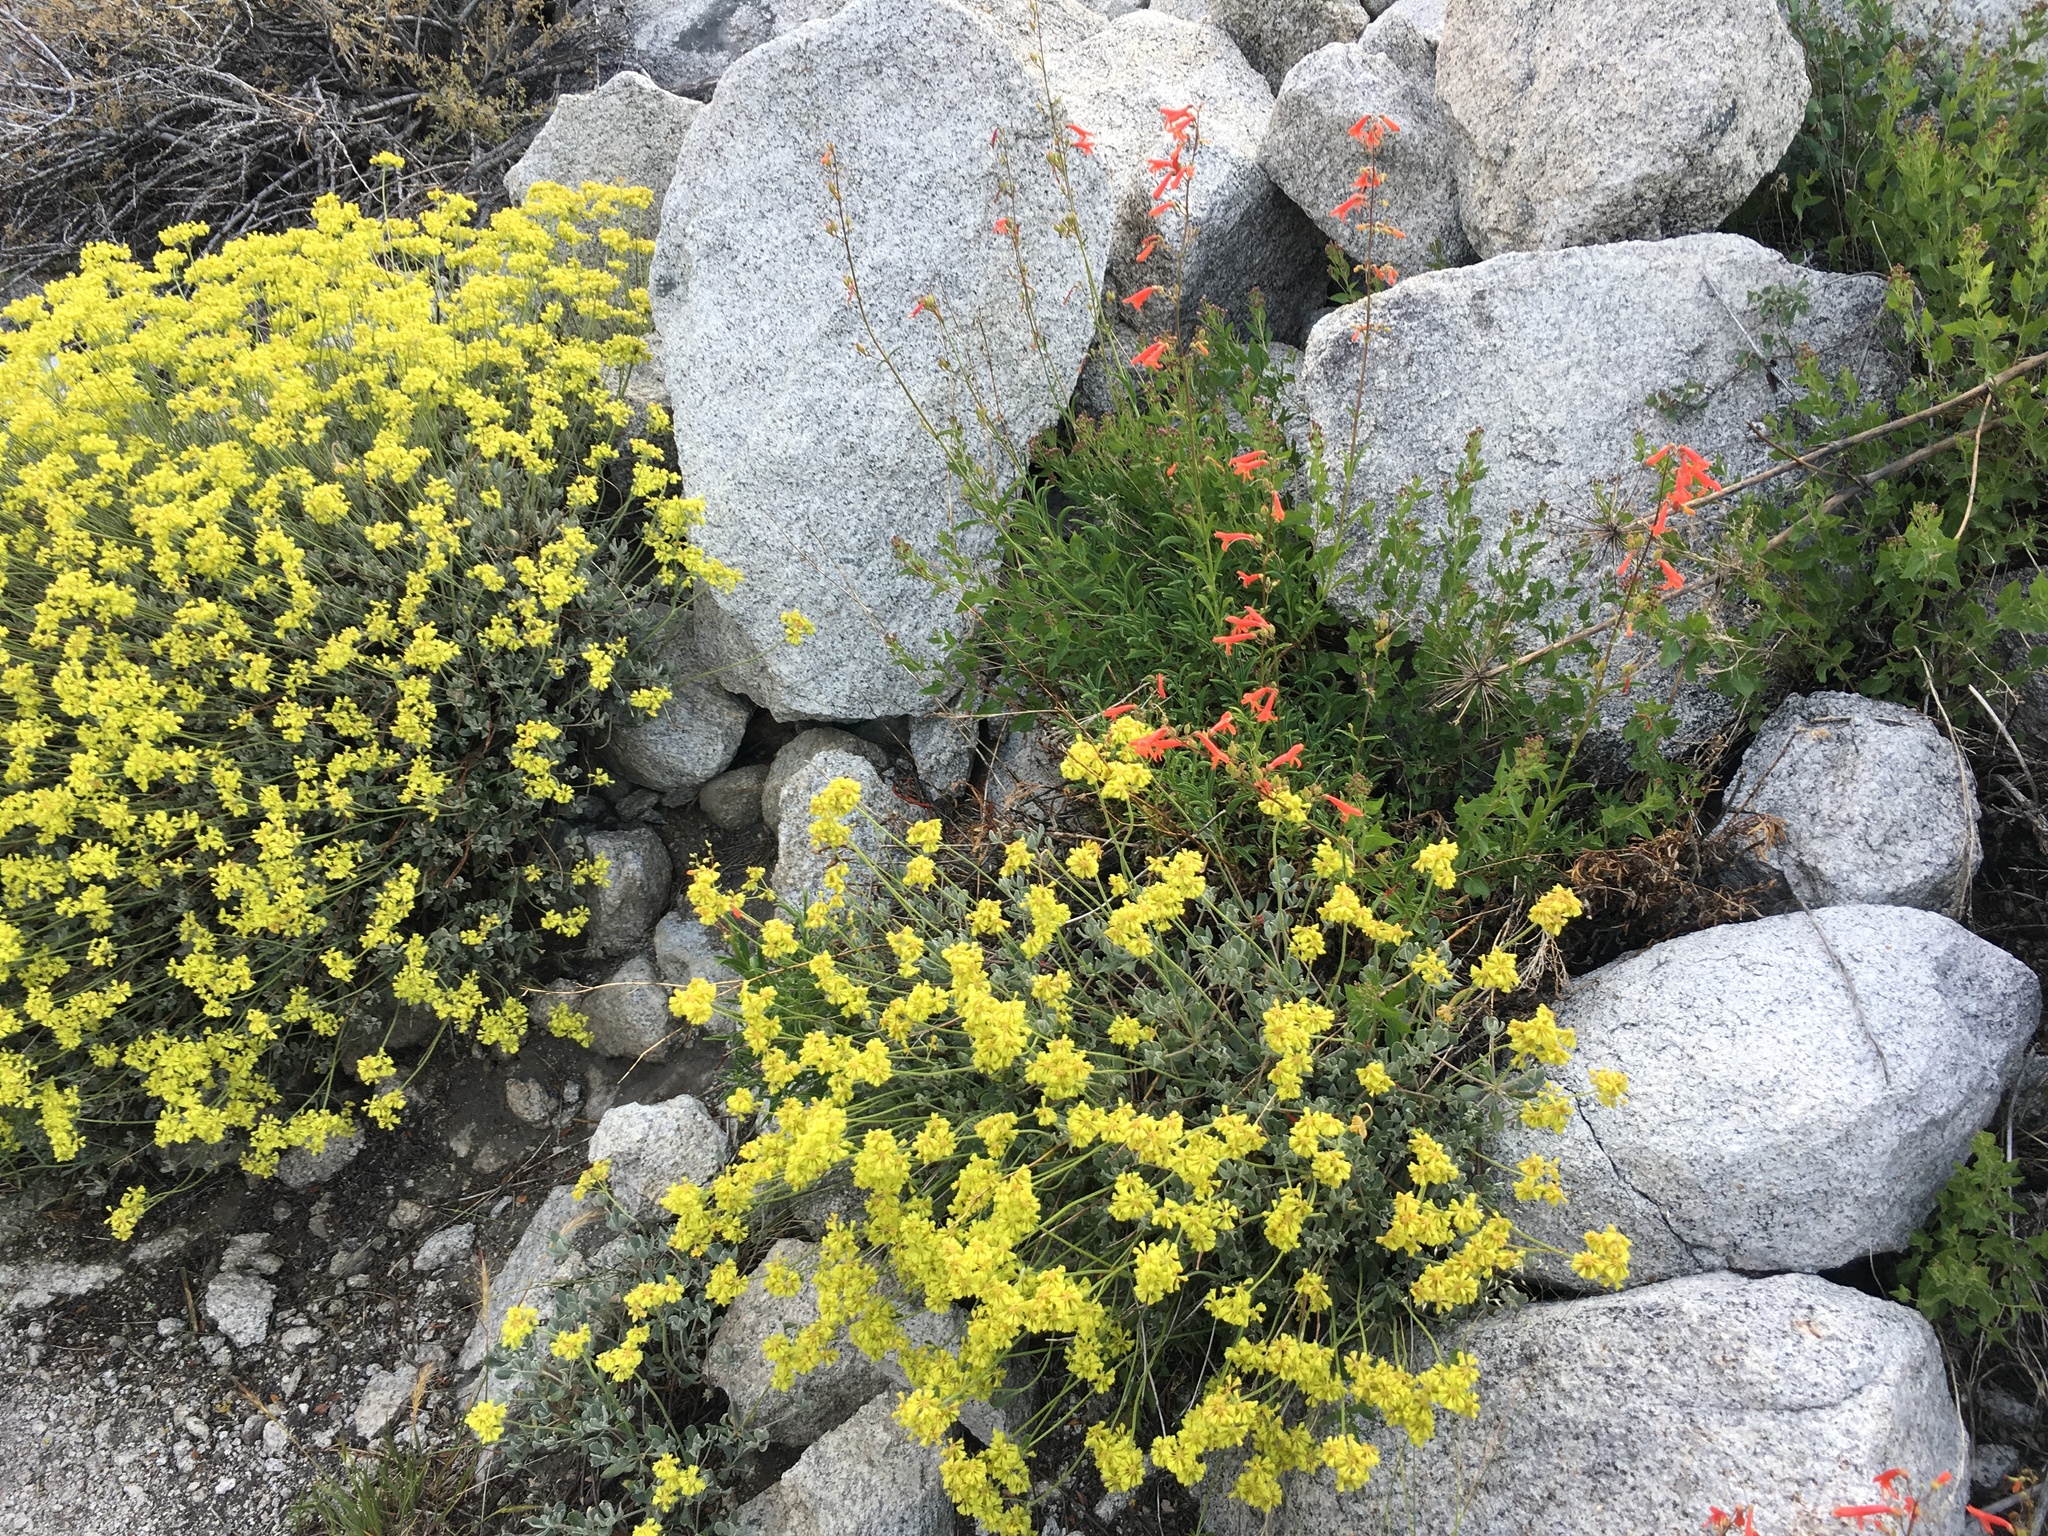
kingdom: Plantae
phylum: Tracheophyta
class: Magnoliopsida
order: Lamiales
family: Plantaginaceae
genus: Penstemon
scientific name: Penstemon rostriflorus
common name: Bridges's penstemon
